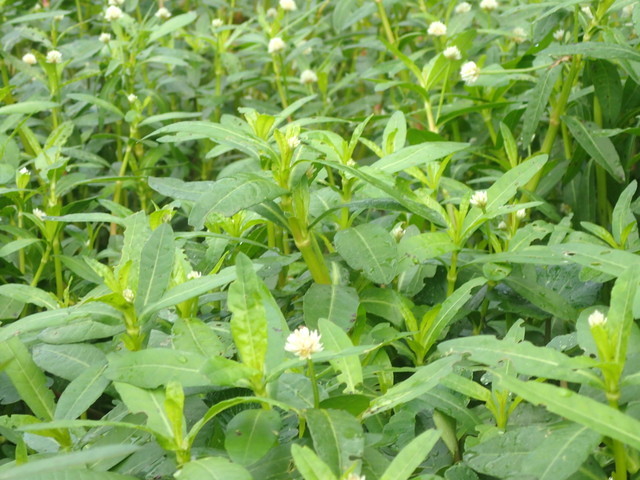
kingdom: Plantae
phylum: Tracheophyta
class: Magnoliopsida
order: Caryophyllales
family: Amaranthaceae
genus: Alternanthera
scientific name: Alternanthera philoxeroides
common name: Alligatorweed
